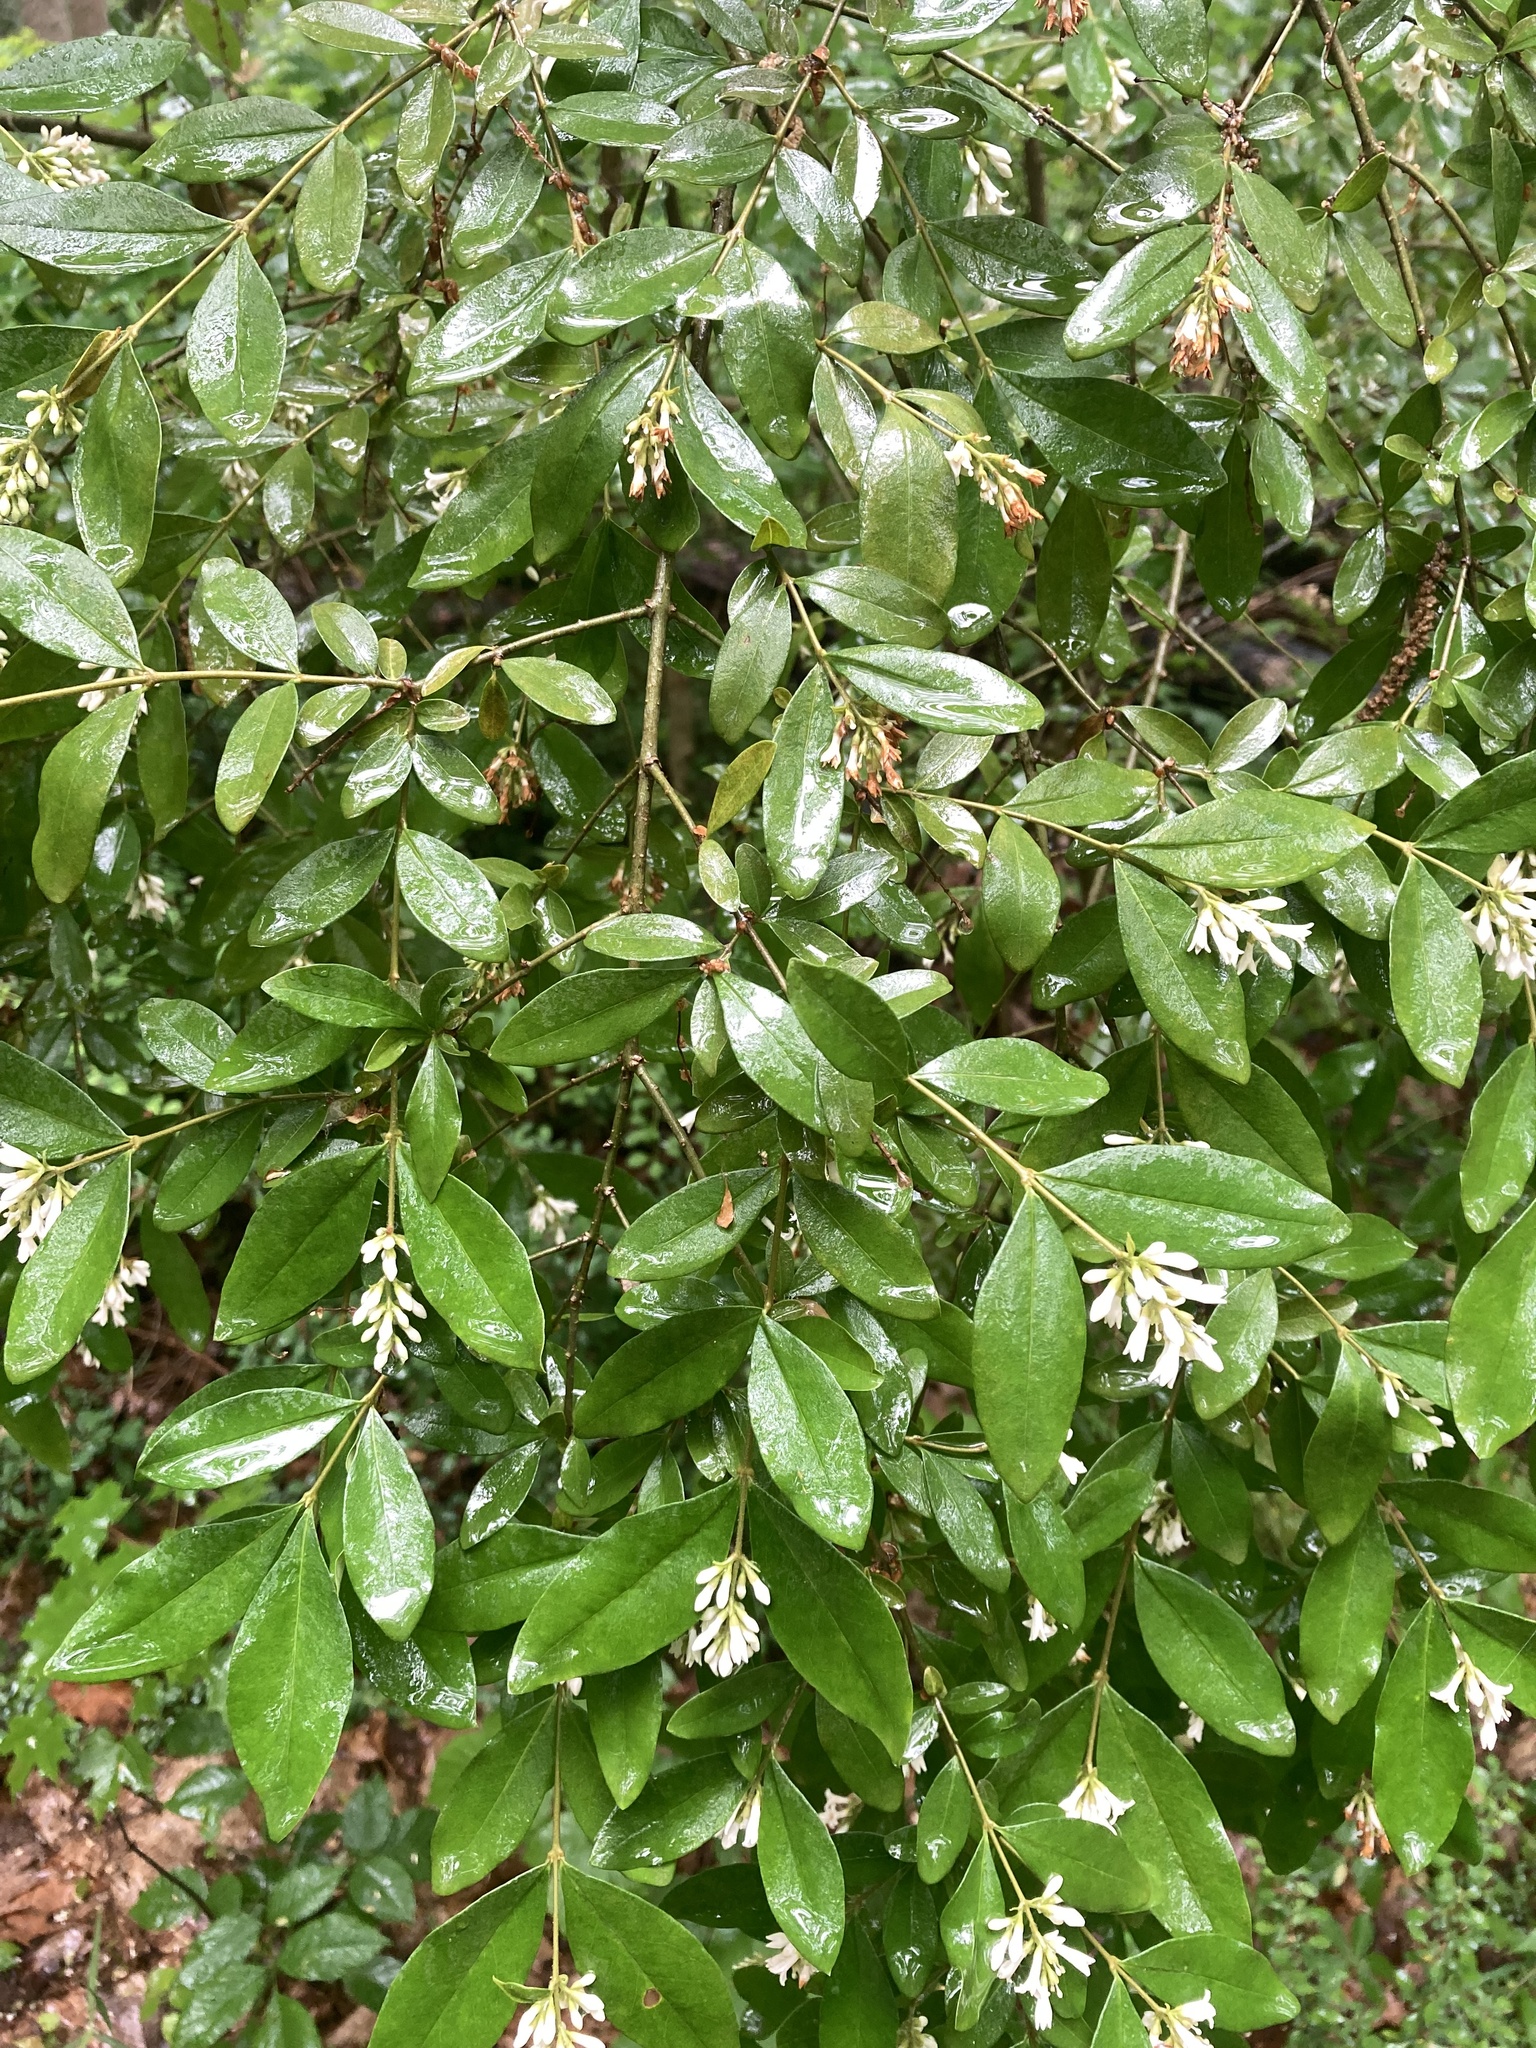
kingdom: Plantae
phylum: Tracheophyta
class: Magnoliopsida
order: Lamiales
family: Oleaceae
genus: Ligustrum
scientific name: Ligustrum obtusifolium
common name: Border privet
